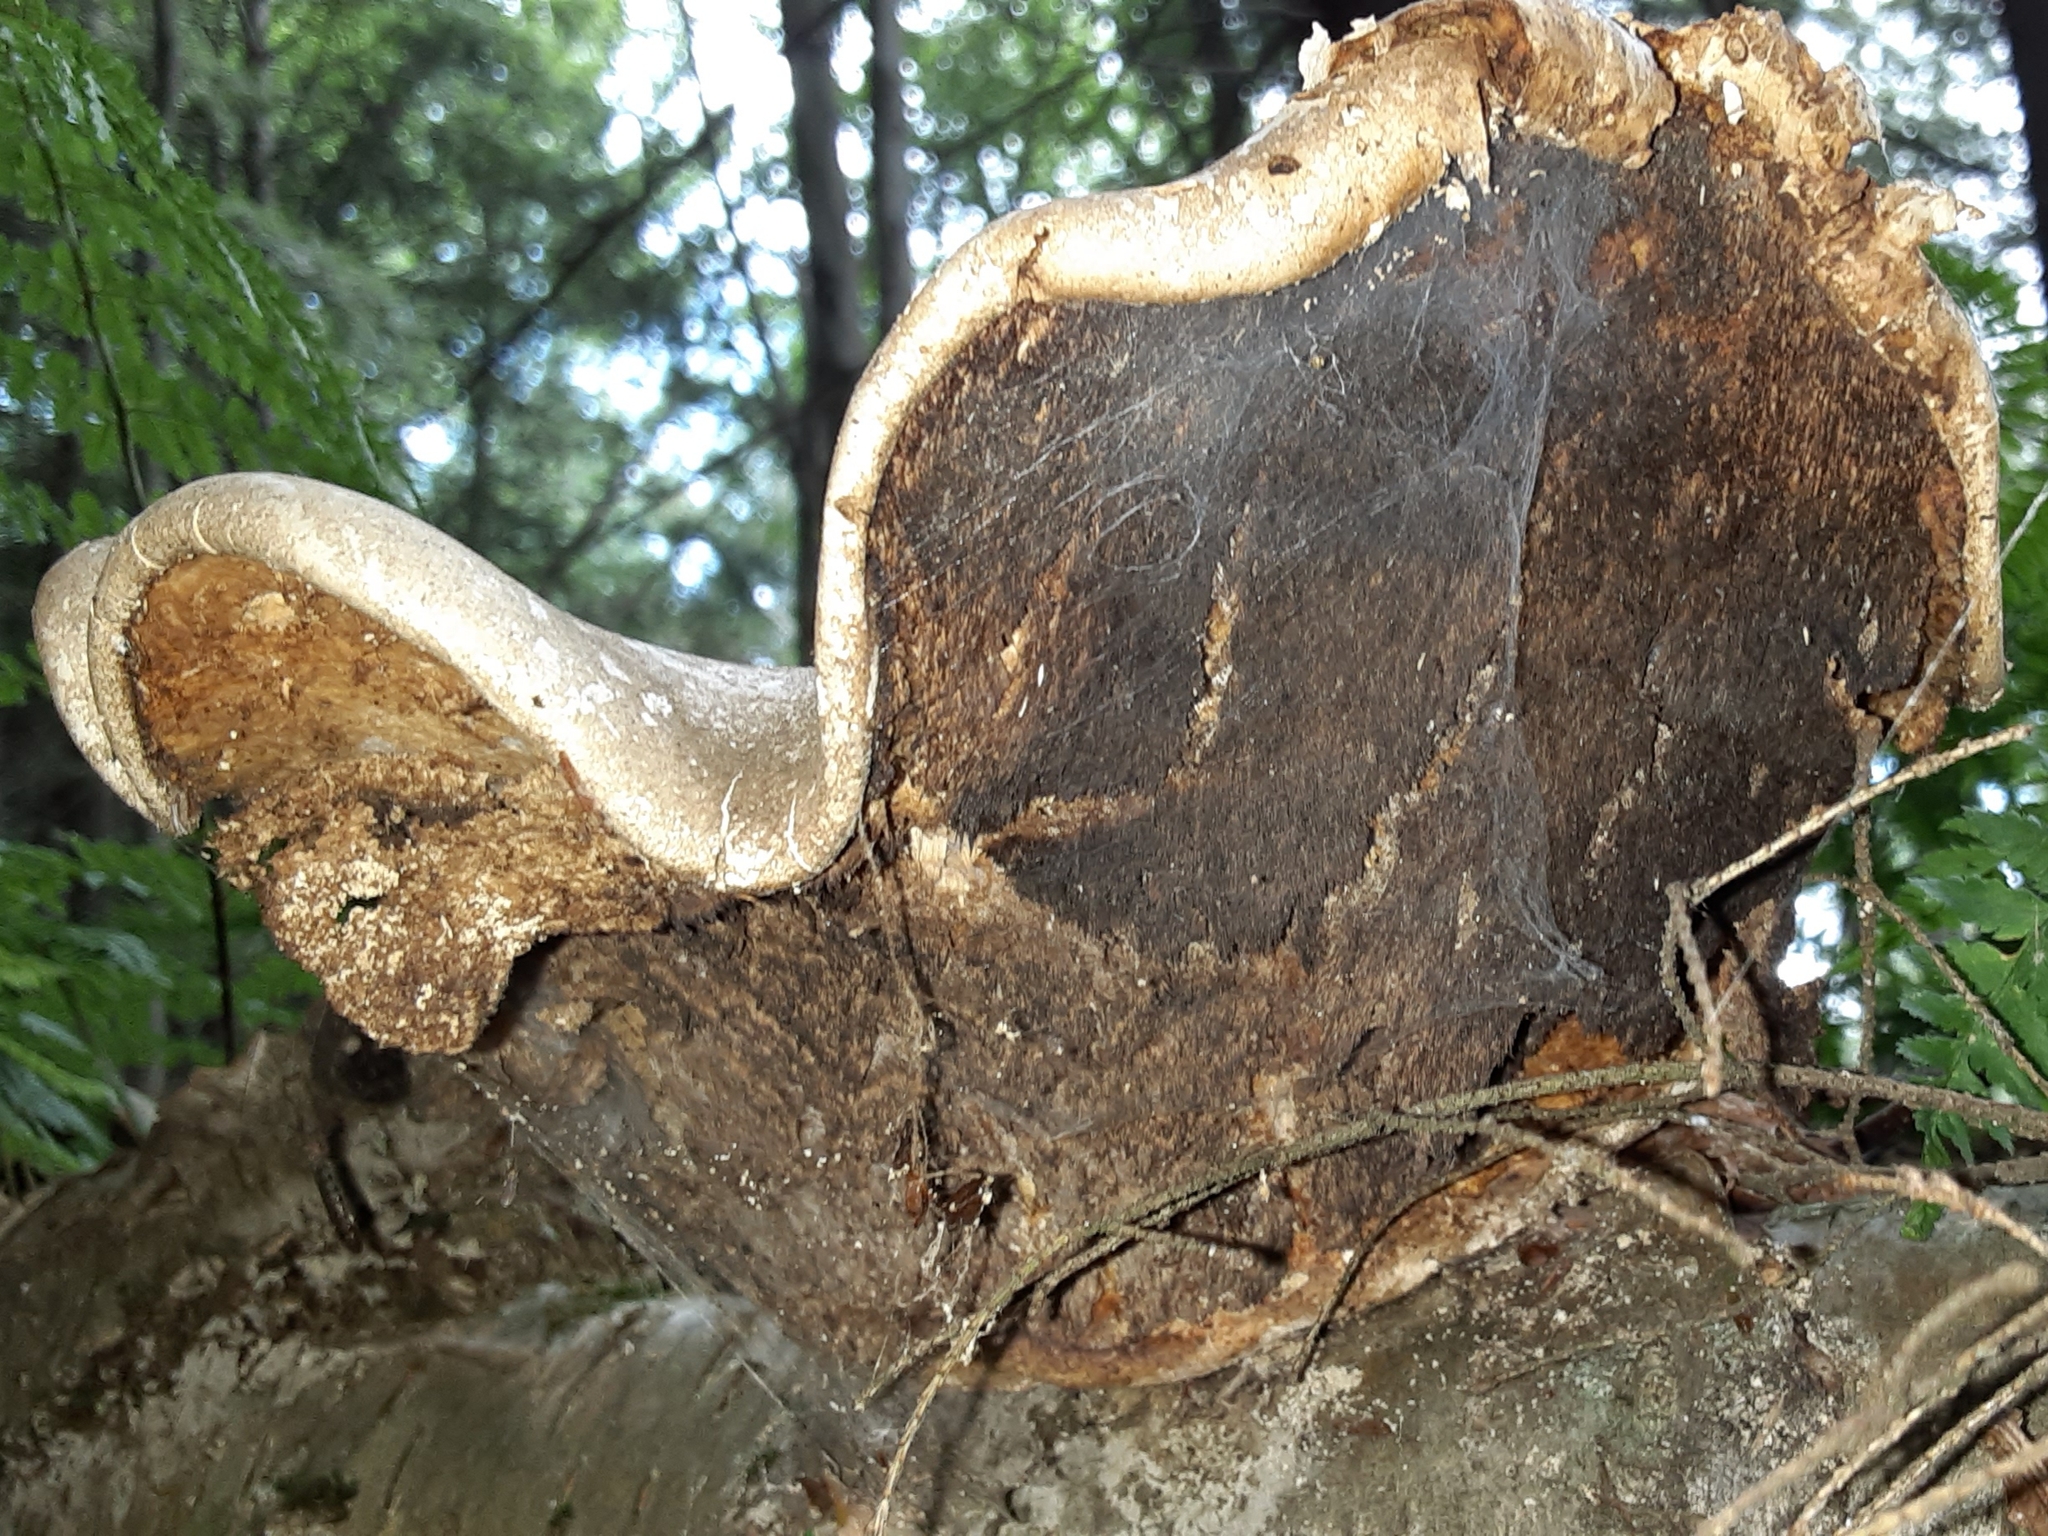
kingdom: Fungi
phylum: Basidiomycota
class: Agaricomycetes
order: Polyporales
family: Fomitopsidaceae
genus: Fomitopsis
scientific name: Fomitopsis betulina
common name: Birch polypore
